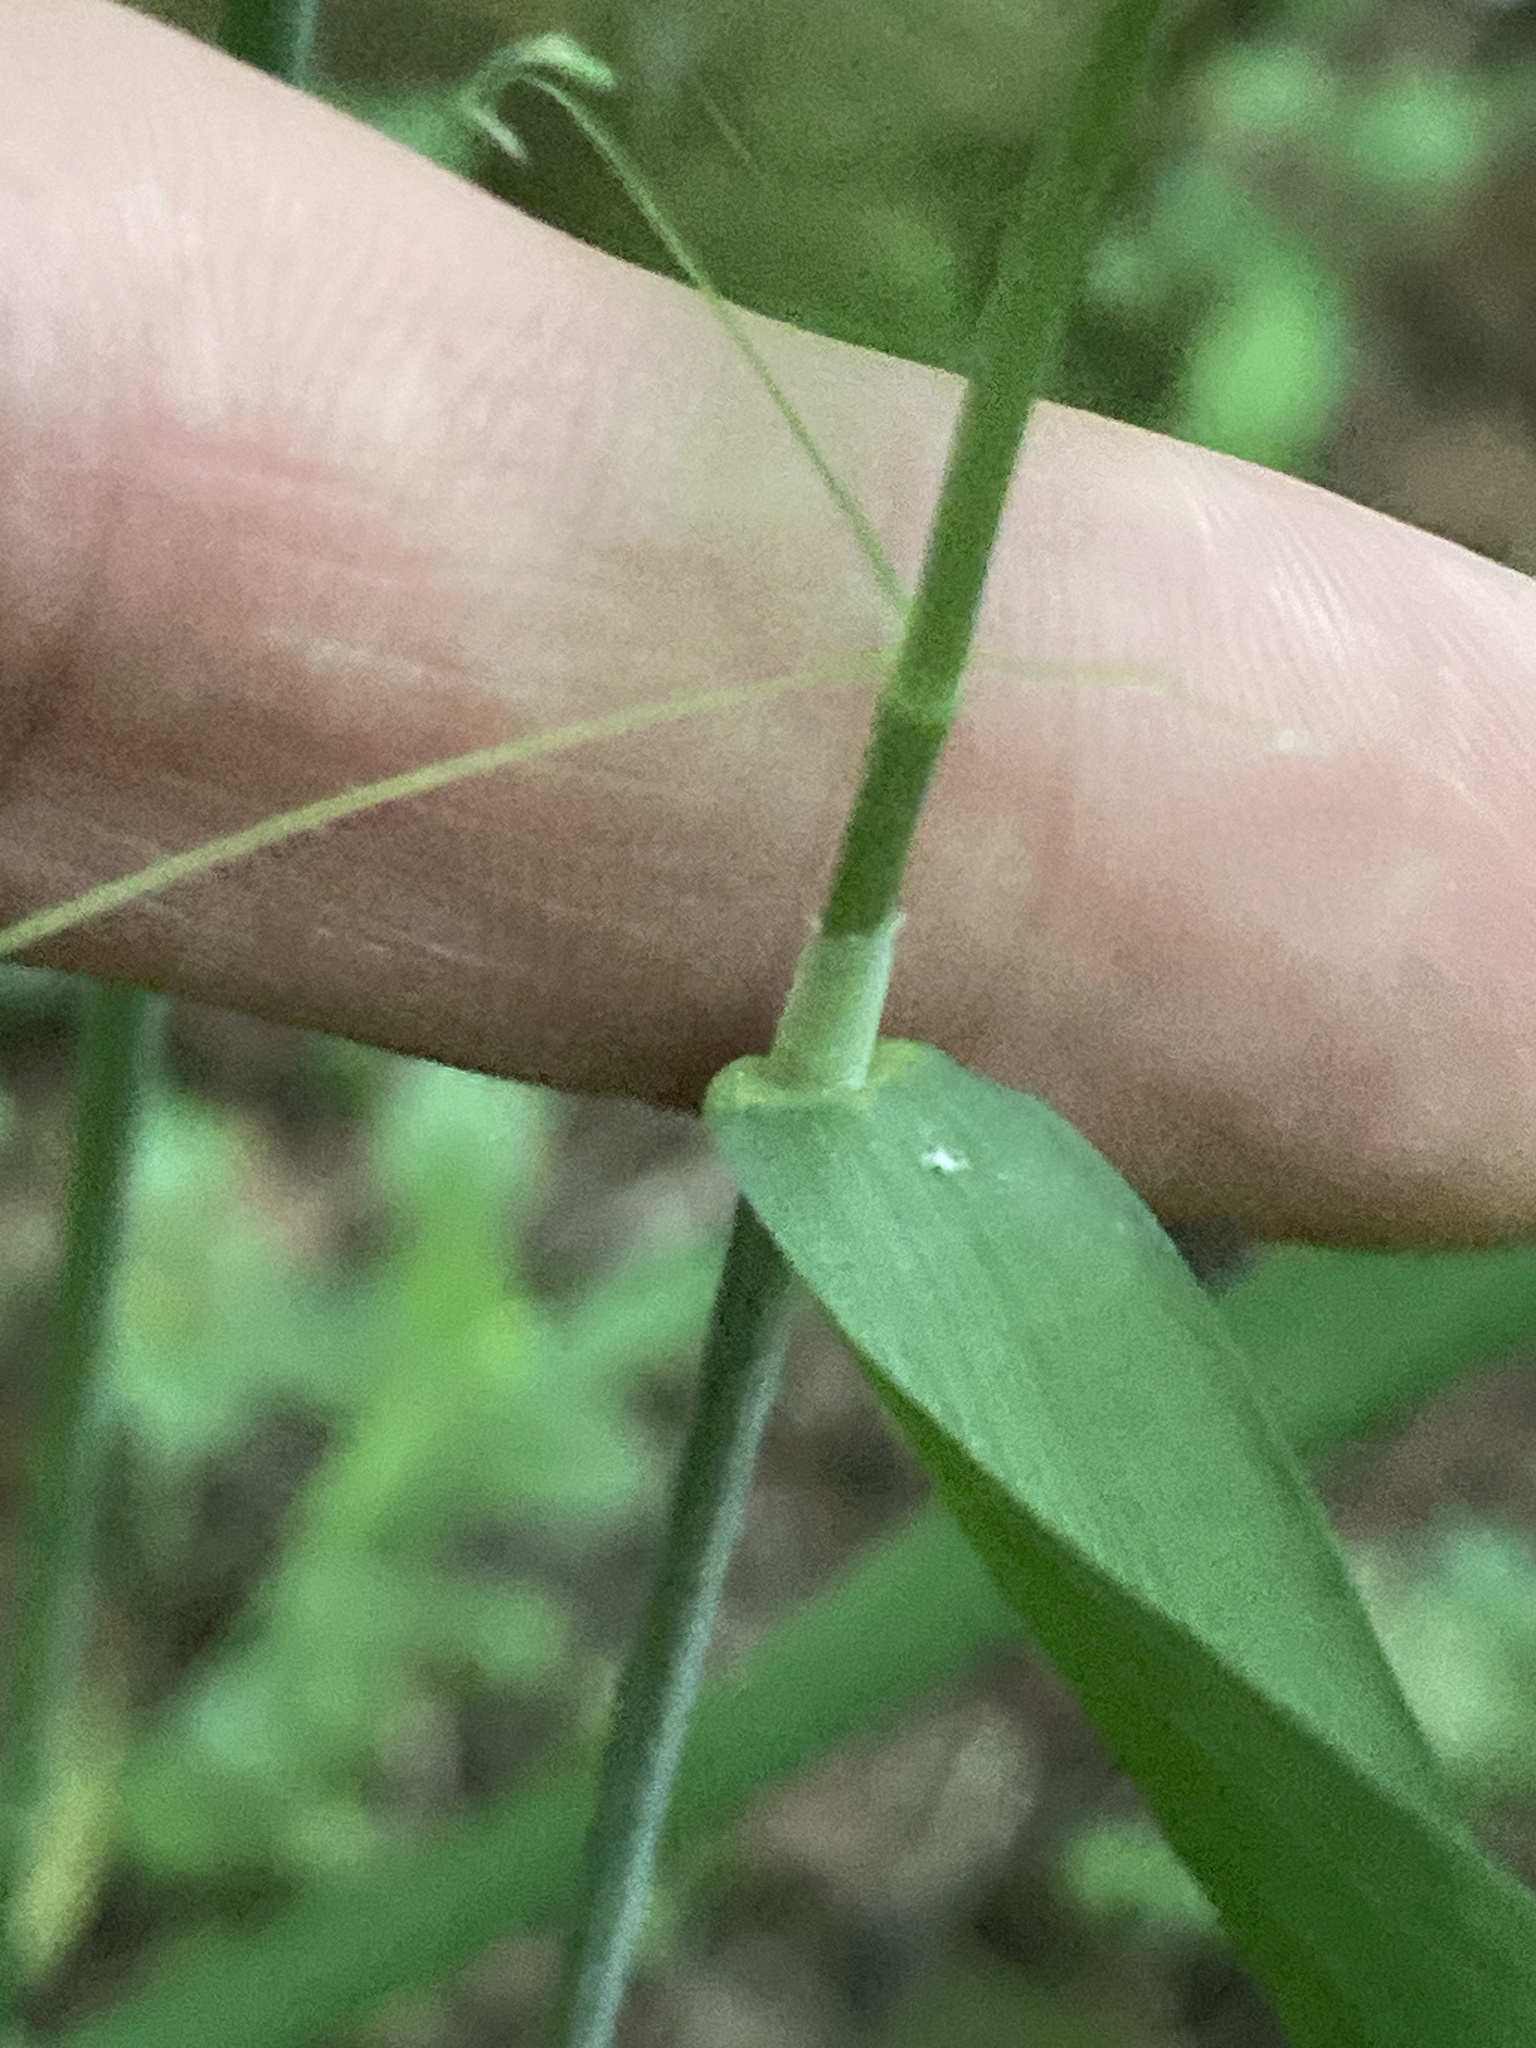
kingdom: Plantae
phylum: Tracheophyta
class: Liliopsida
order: Poales
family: Poaceae
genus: Milium
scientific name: Milium effusum
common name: Wood millet
